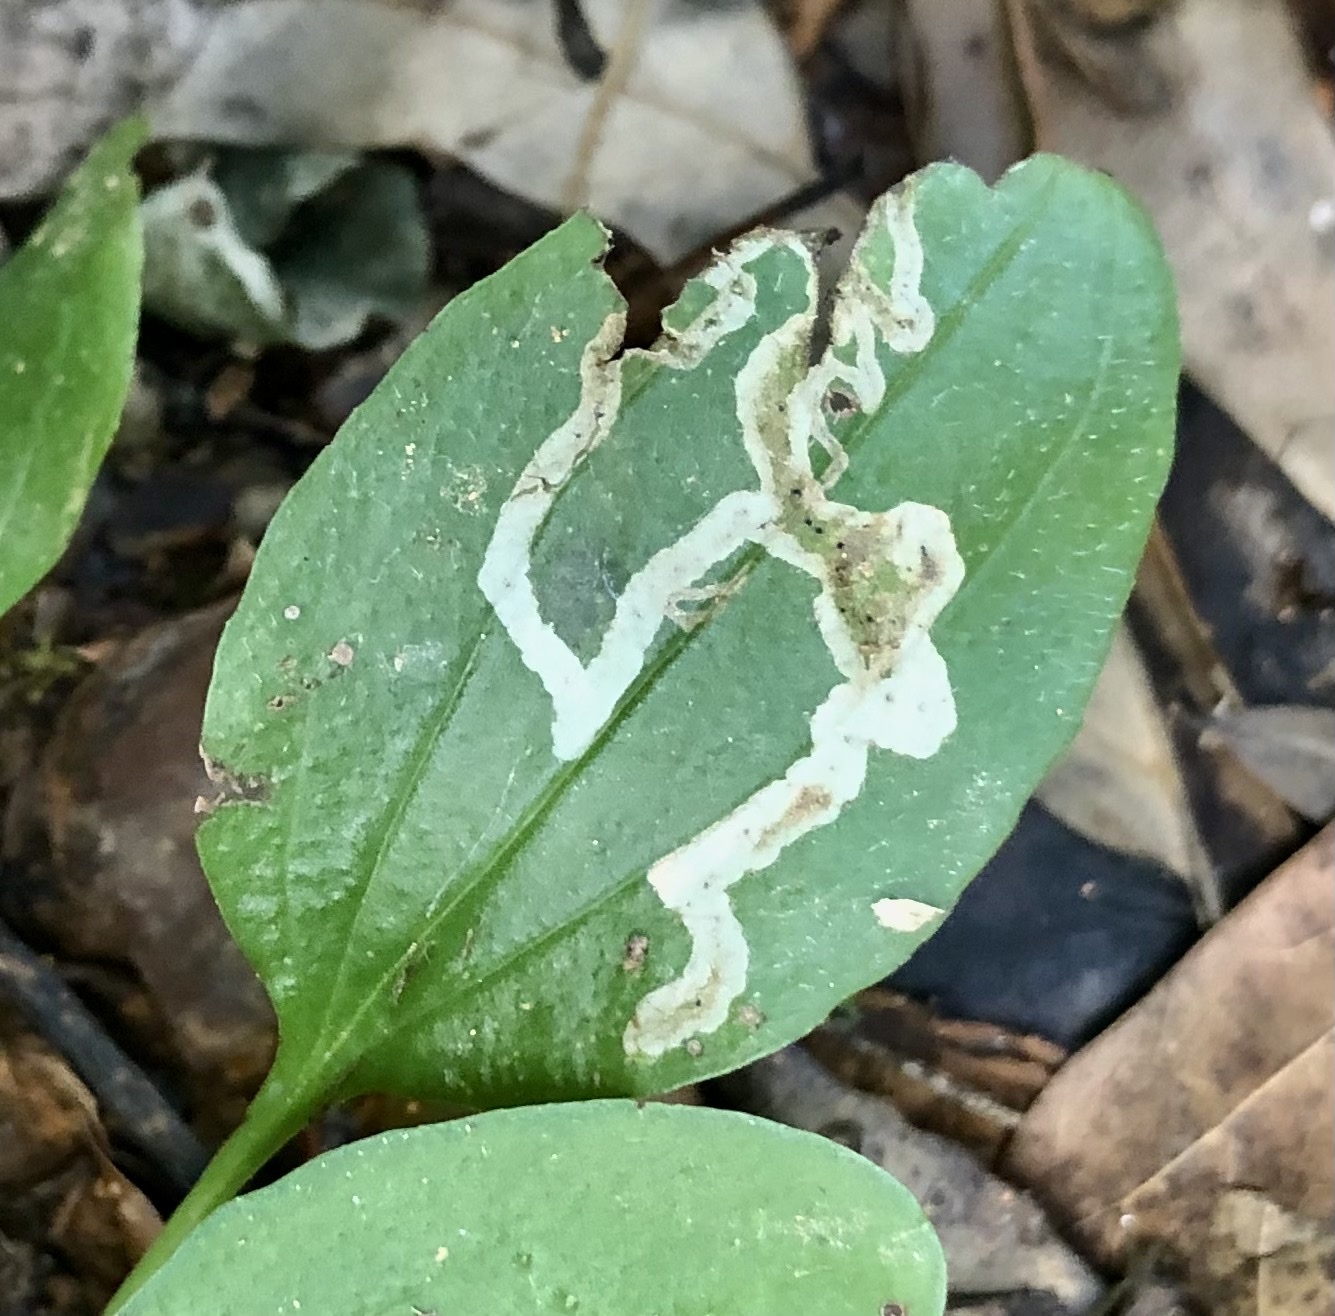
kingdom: Animalia
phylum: Arthropoda
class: Insecta
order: Diptera
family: Agromyzidae
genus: Phytomyza
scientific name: Phytomyza plantaginis
